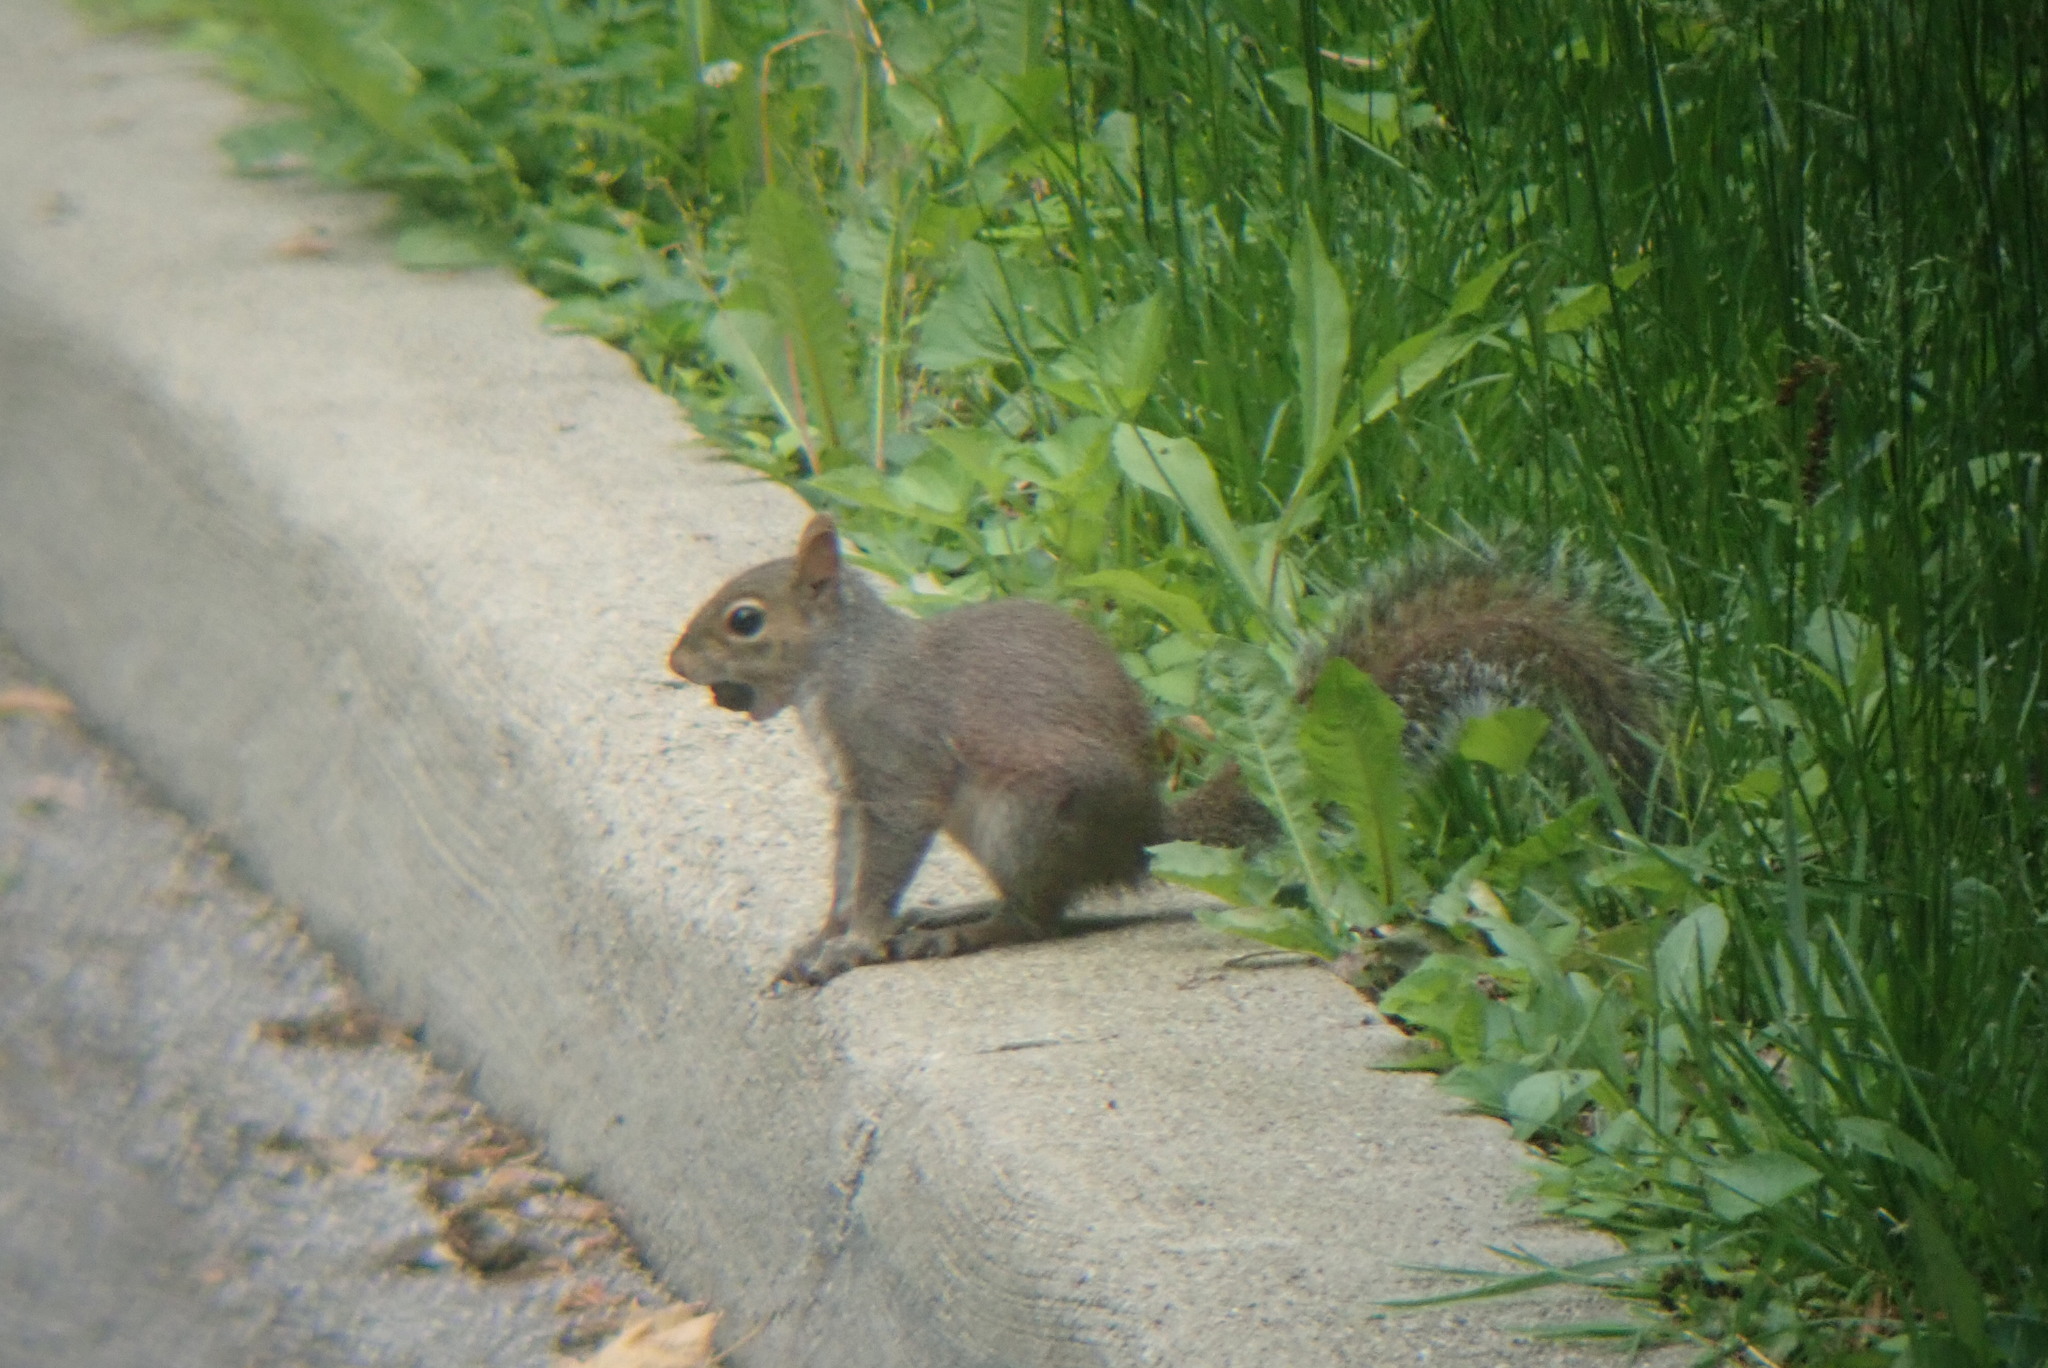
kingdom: Animalia
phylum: Chordata
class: Mammalia
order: Rodentia
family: Sciuridae
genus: Sciurus
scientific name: Sciurus carolinensis
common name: Eastern gray squirrel
